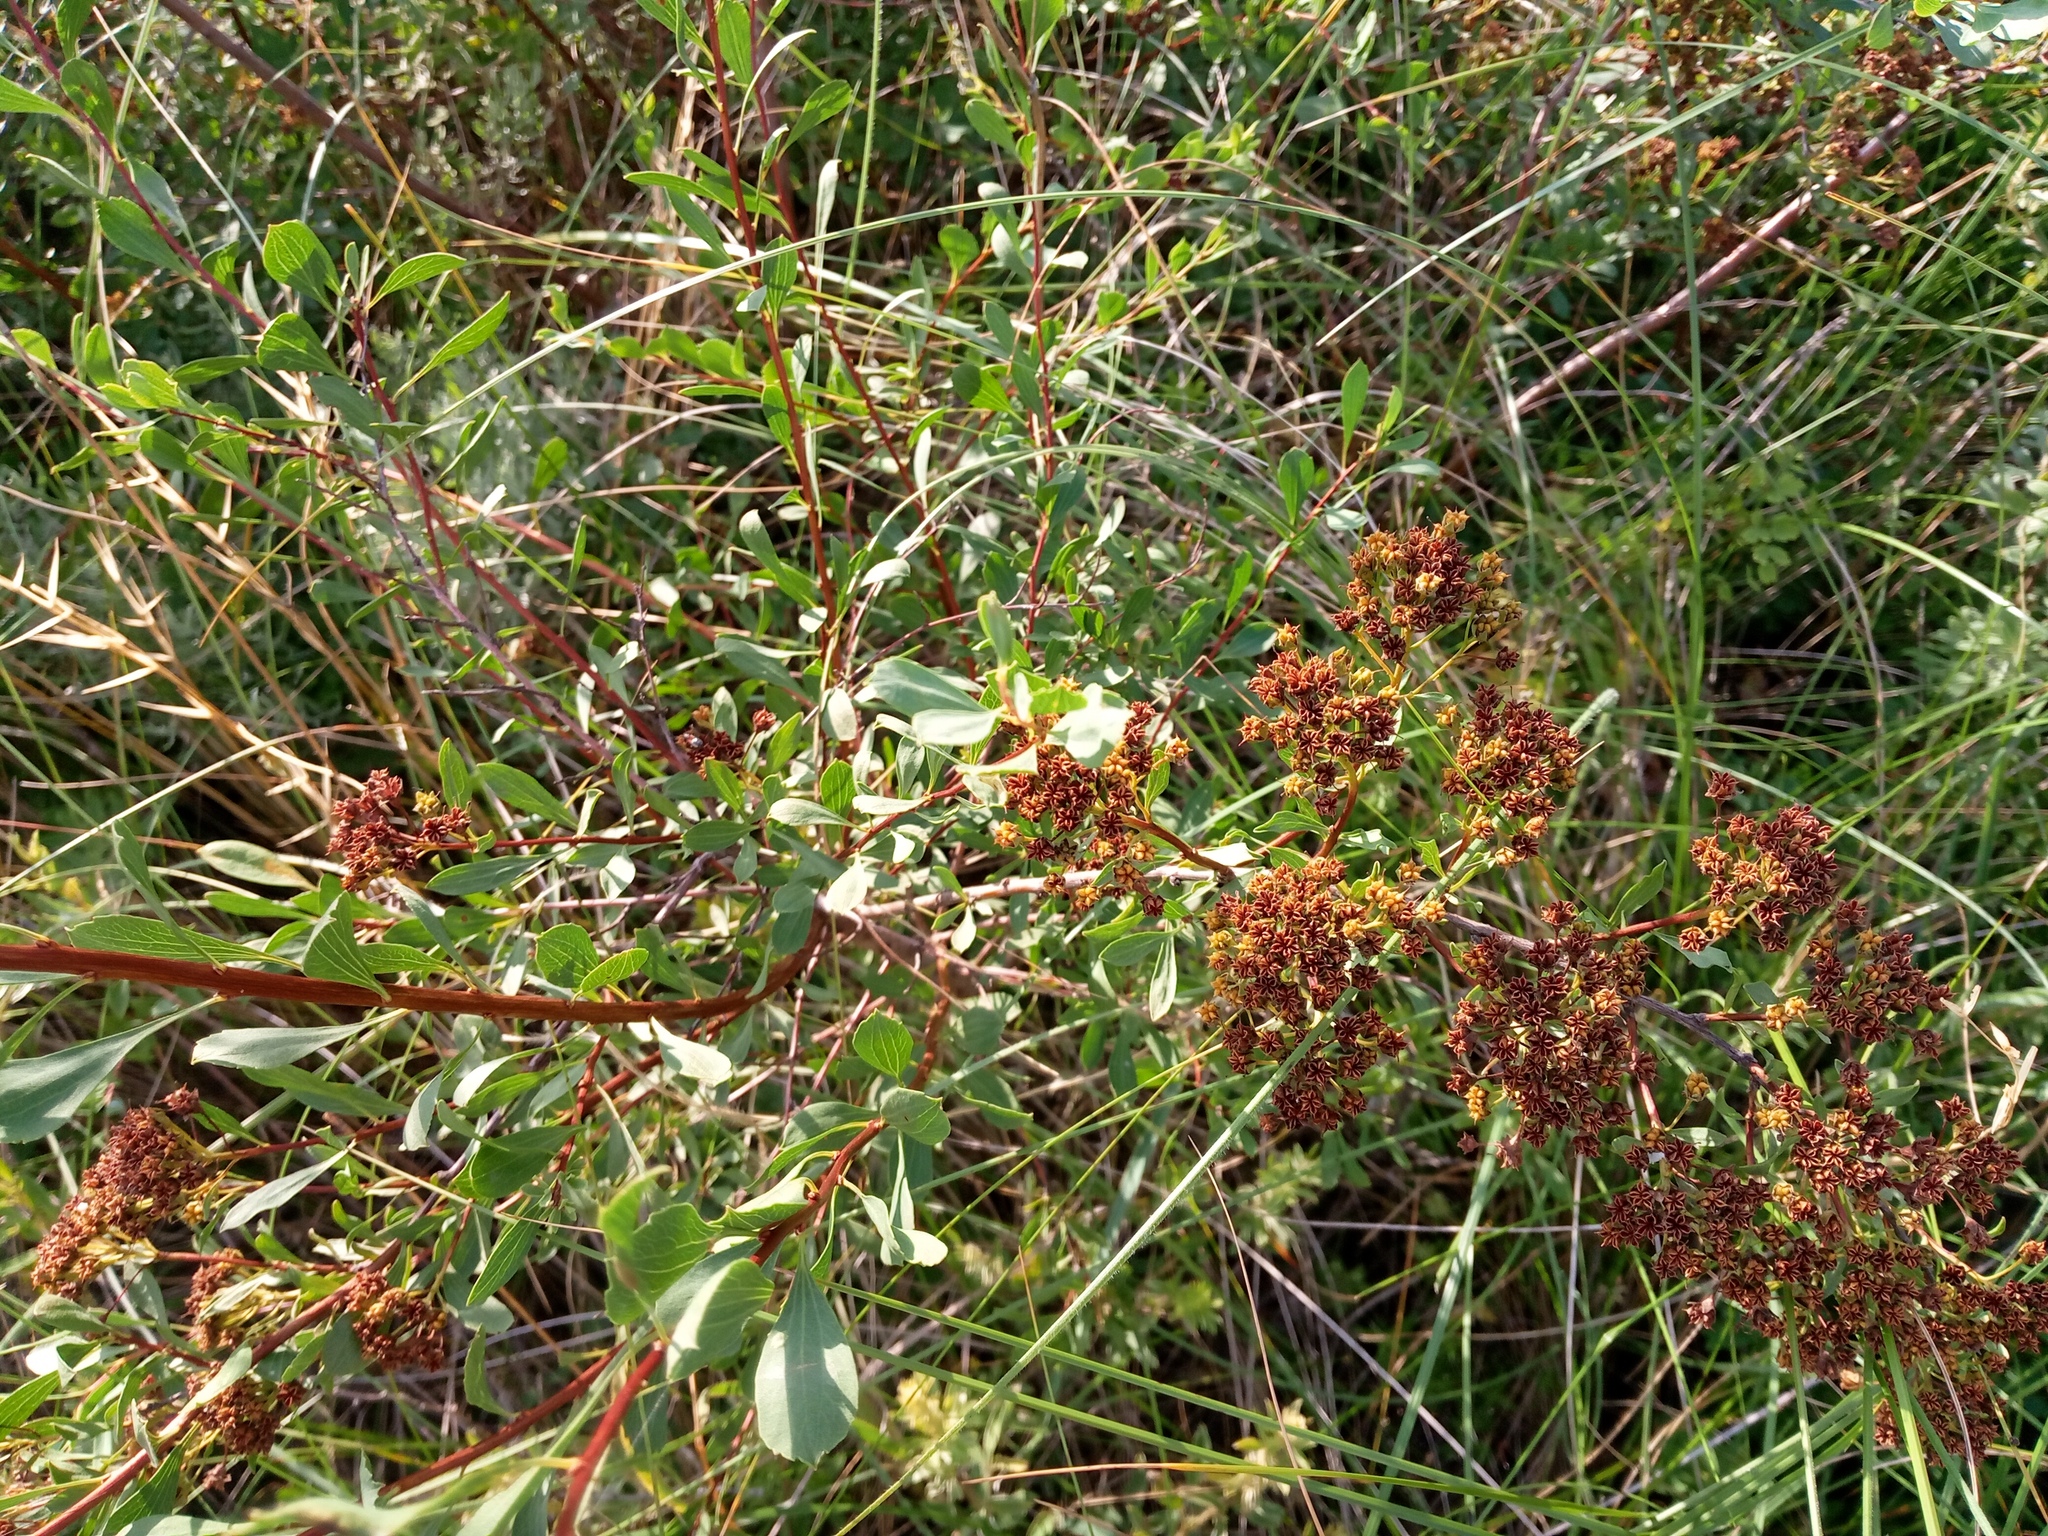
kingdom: Plantae
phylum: Tracheophyta
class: Magnoliopsida
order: Rosales
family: Rosaceae
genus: Spiraea
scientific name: Spiraea crenata
